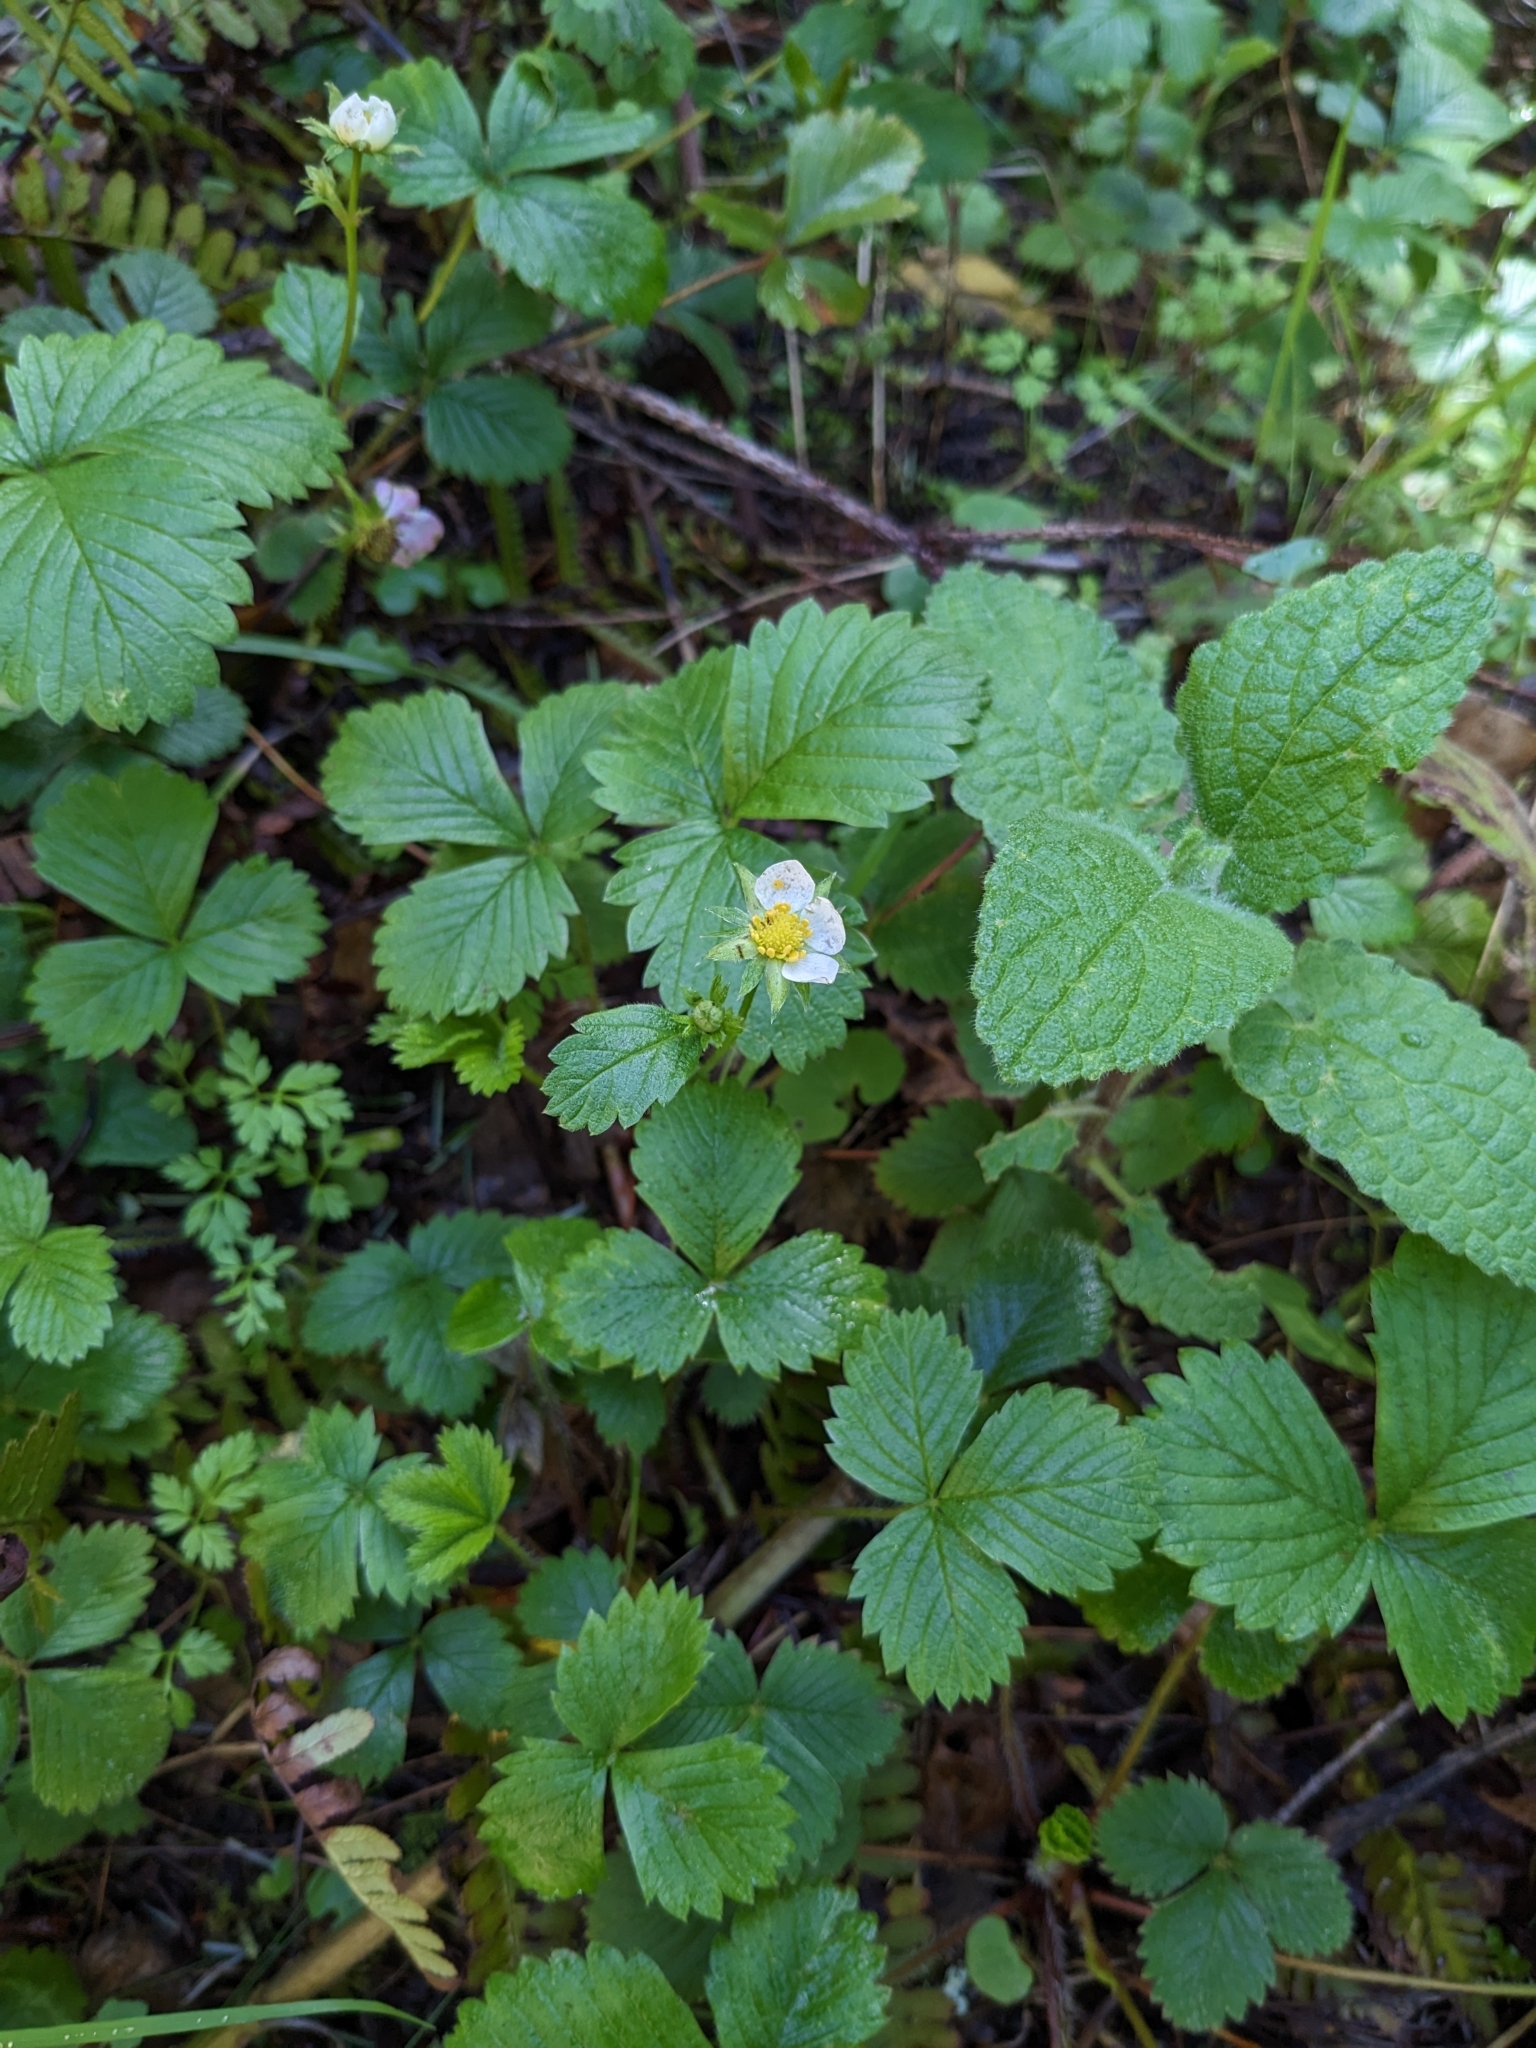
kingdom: Plantae
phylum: Tracheophyta
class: Magnoliopsida
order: Rosales
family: Rosaceae
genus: Fragaria
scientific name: Fragaria vesca
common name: Wild strawberry
